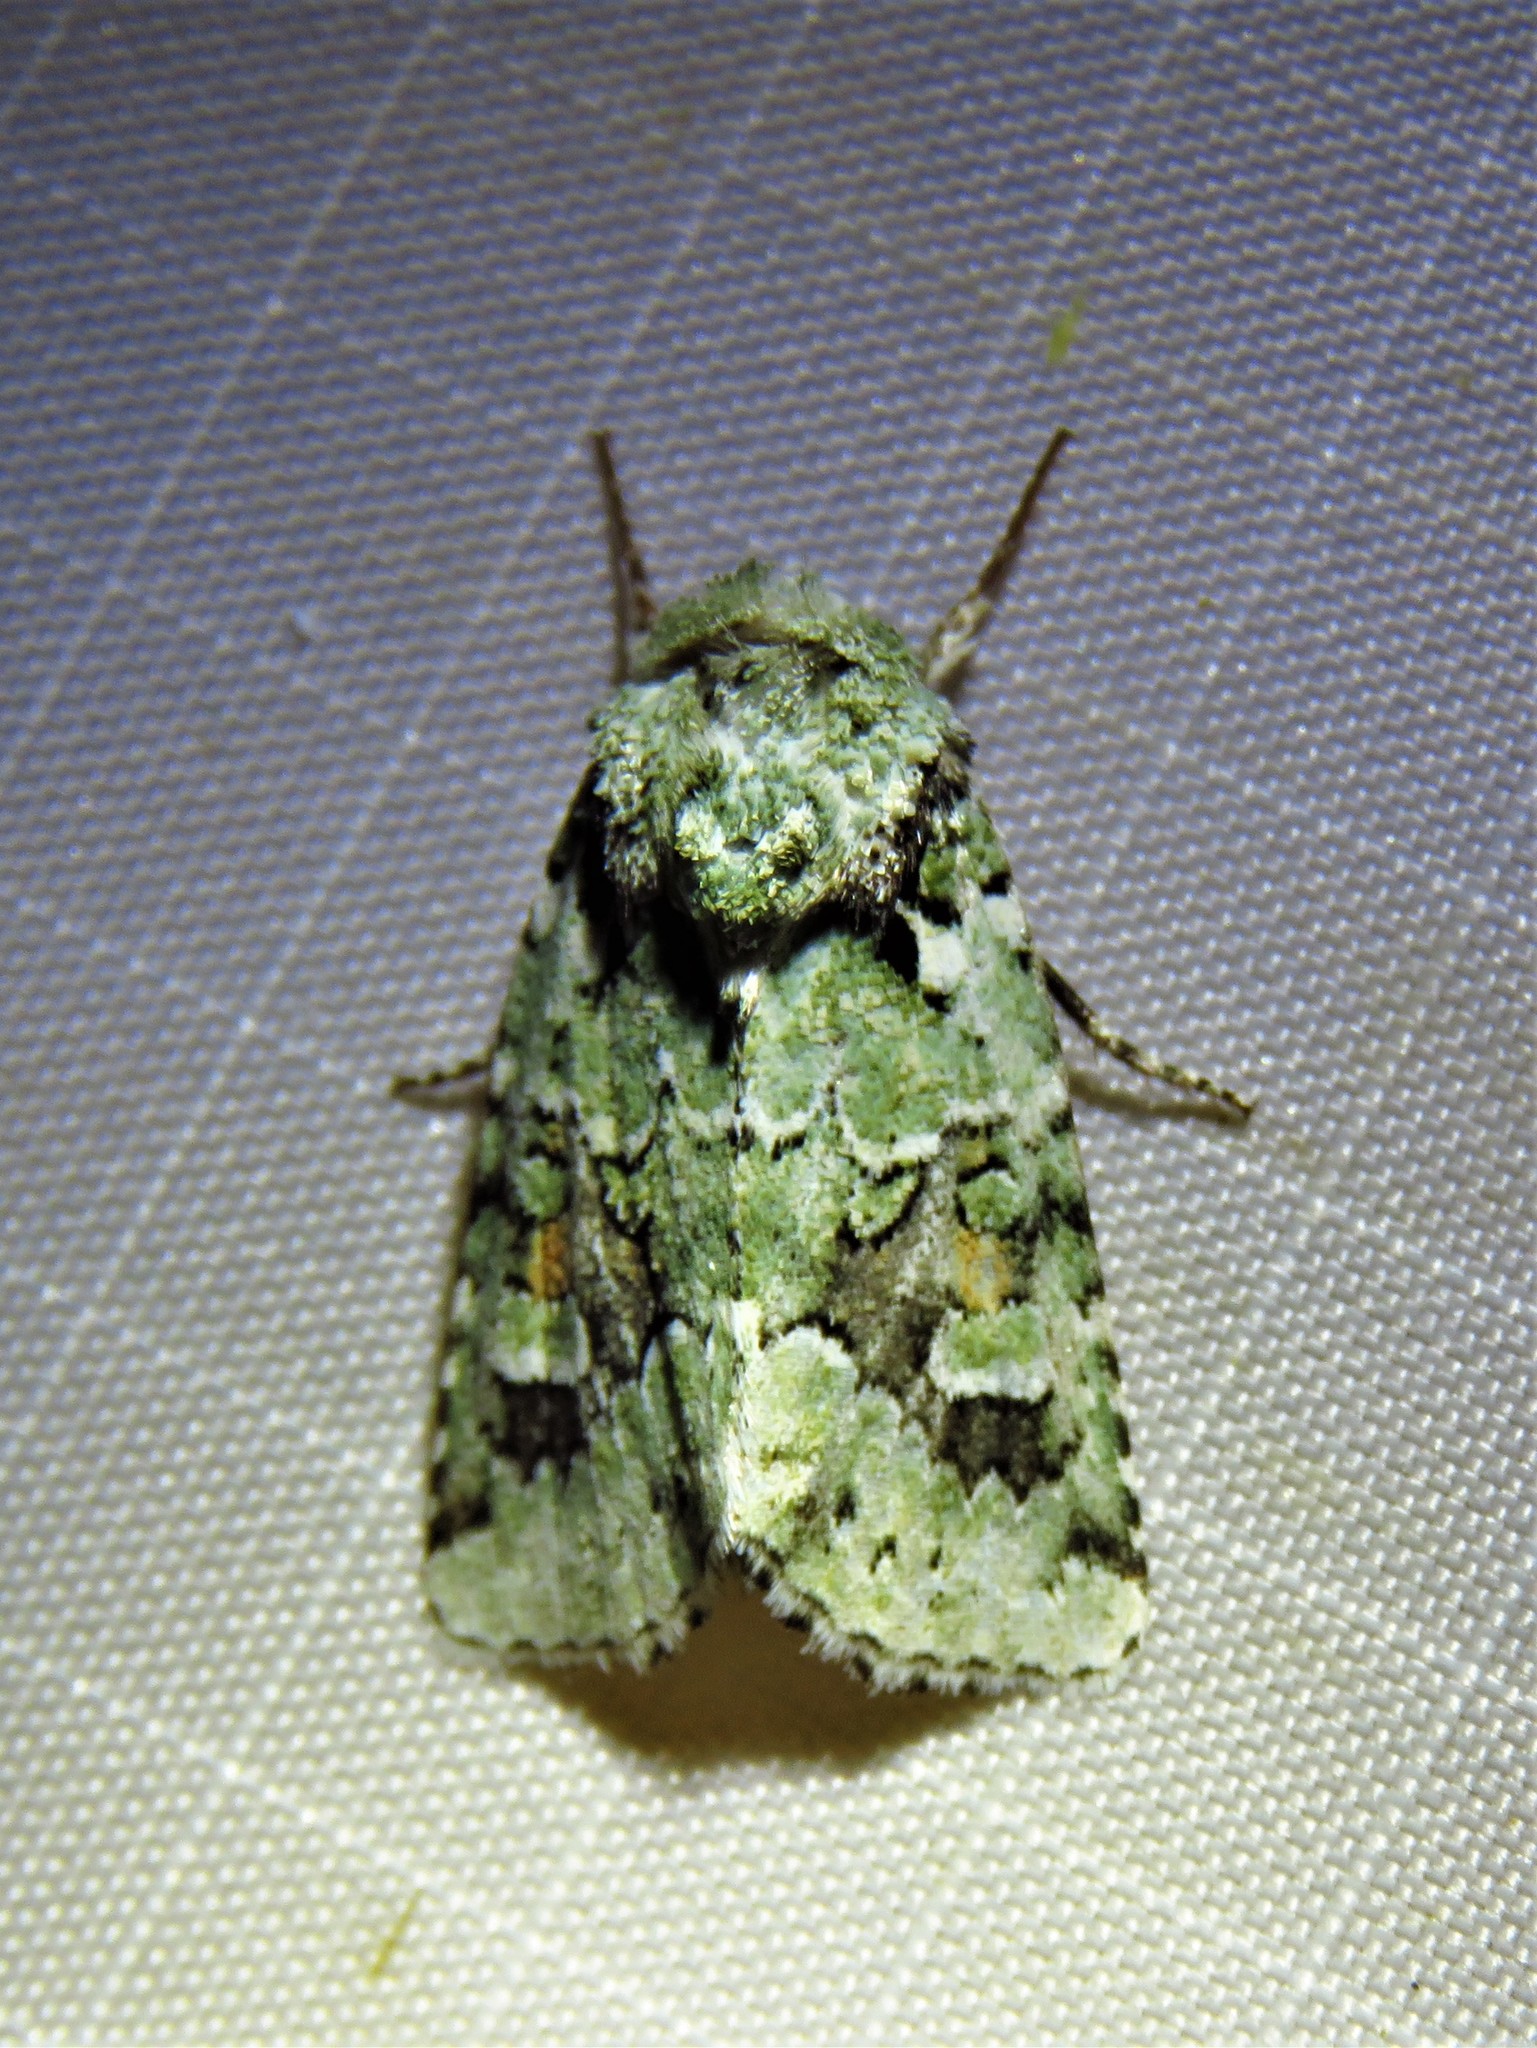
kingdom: Animalia
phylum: Arthropoda
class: Insecta
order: Lepidoptera
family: Noctuidae
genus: Lacinipolia
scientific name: Lacinipolia laudabilis
